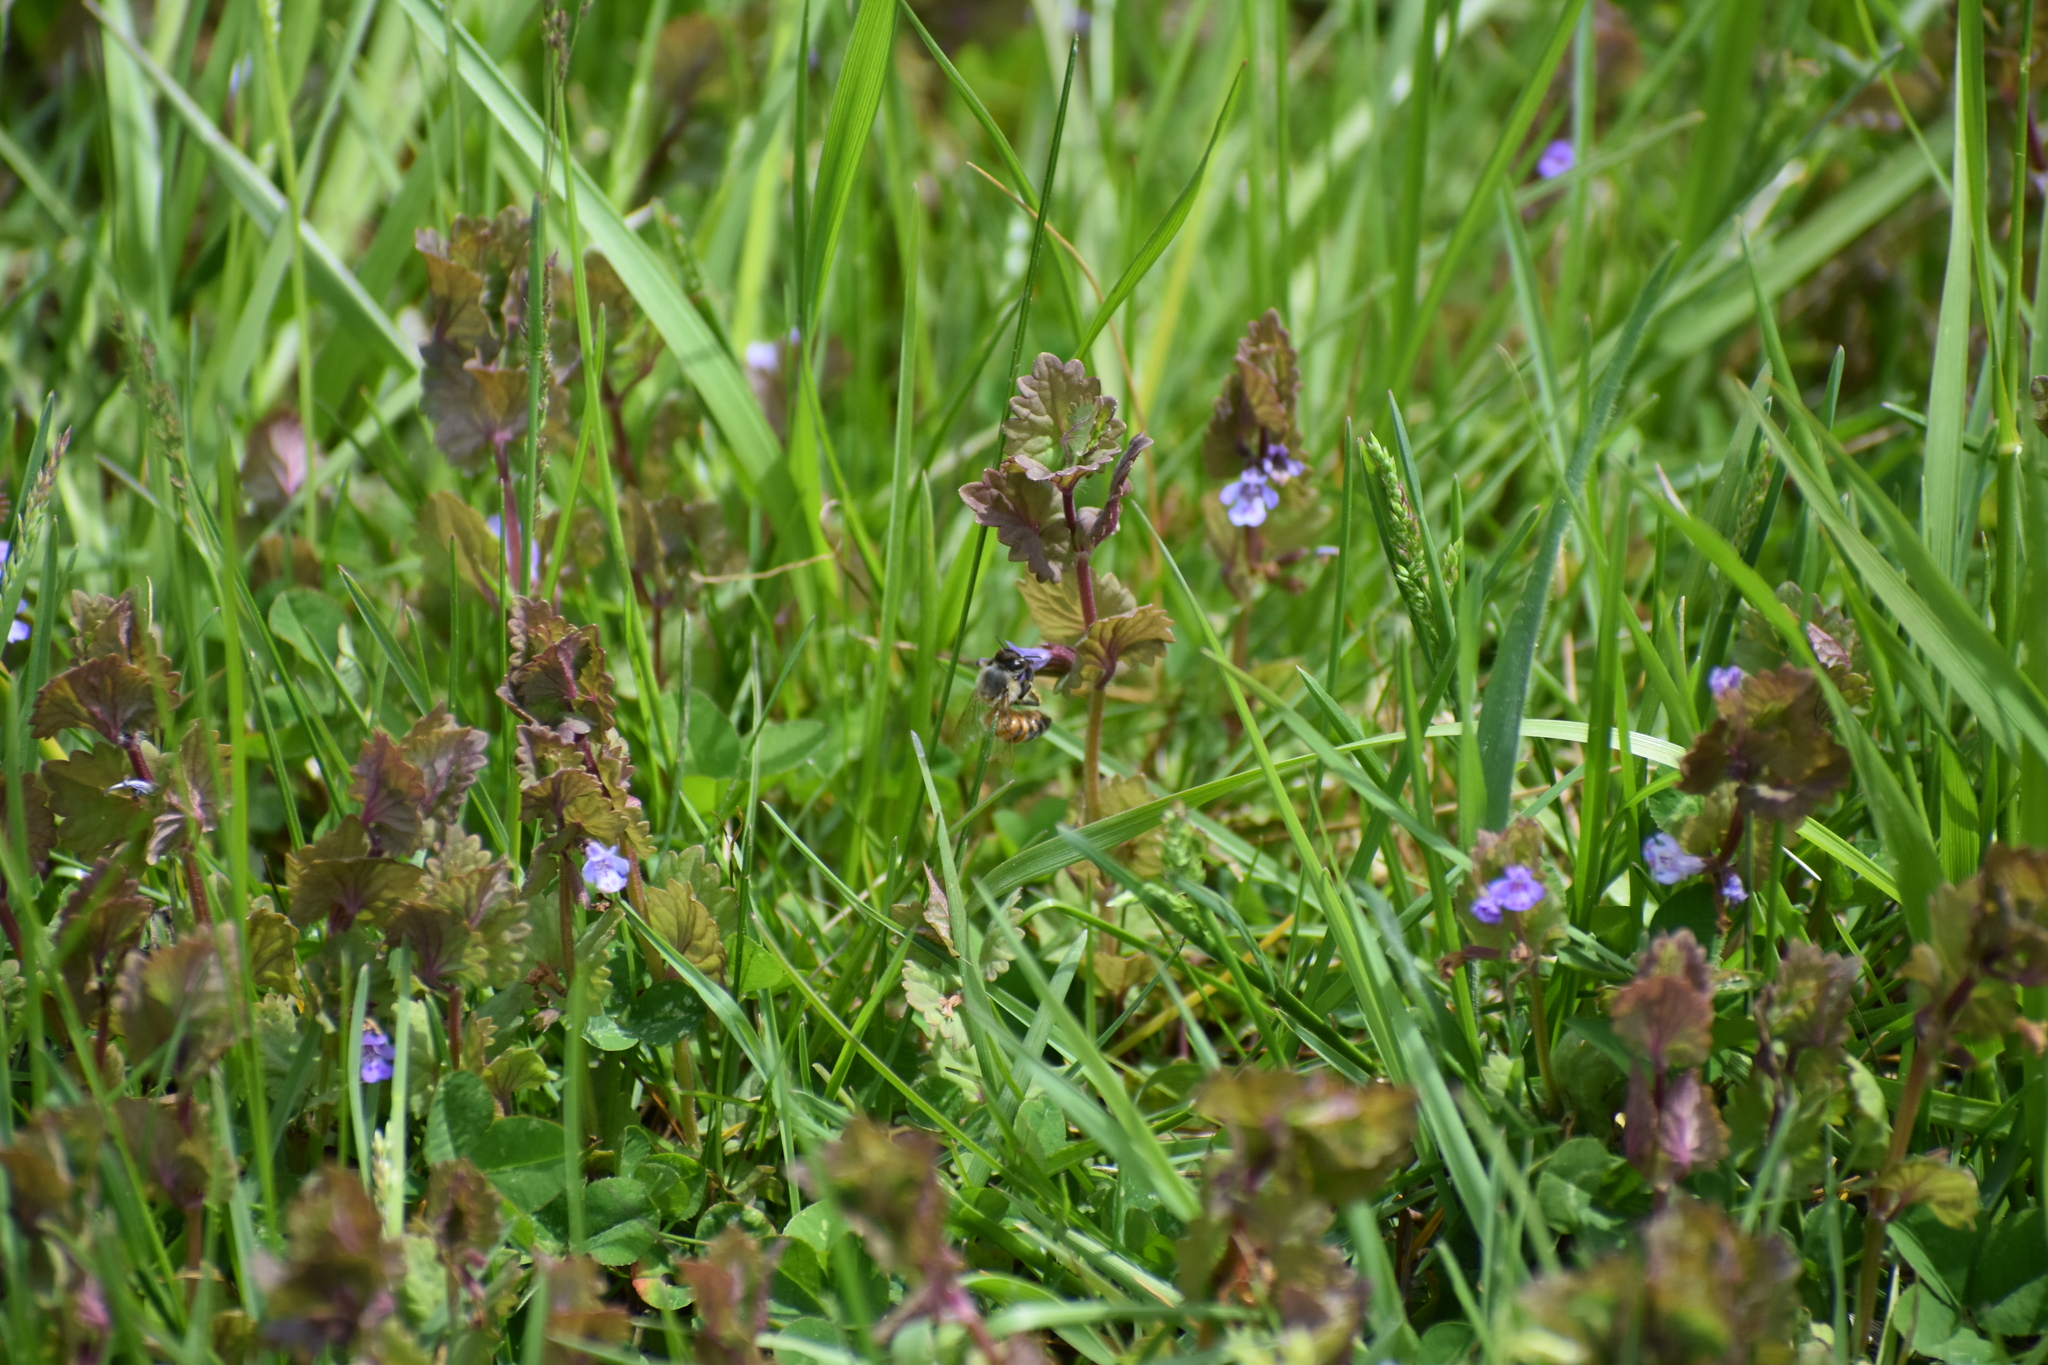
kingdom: Animalia
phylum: Arthropoda
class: Insecta
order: Hymenoptera
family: Apidae
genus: Apis
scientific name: Apis mellifera
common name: Honey bee
